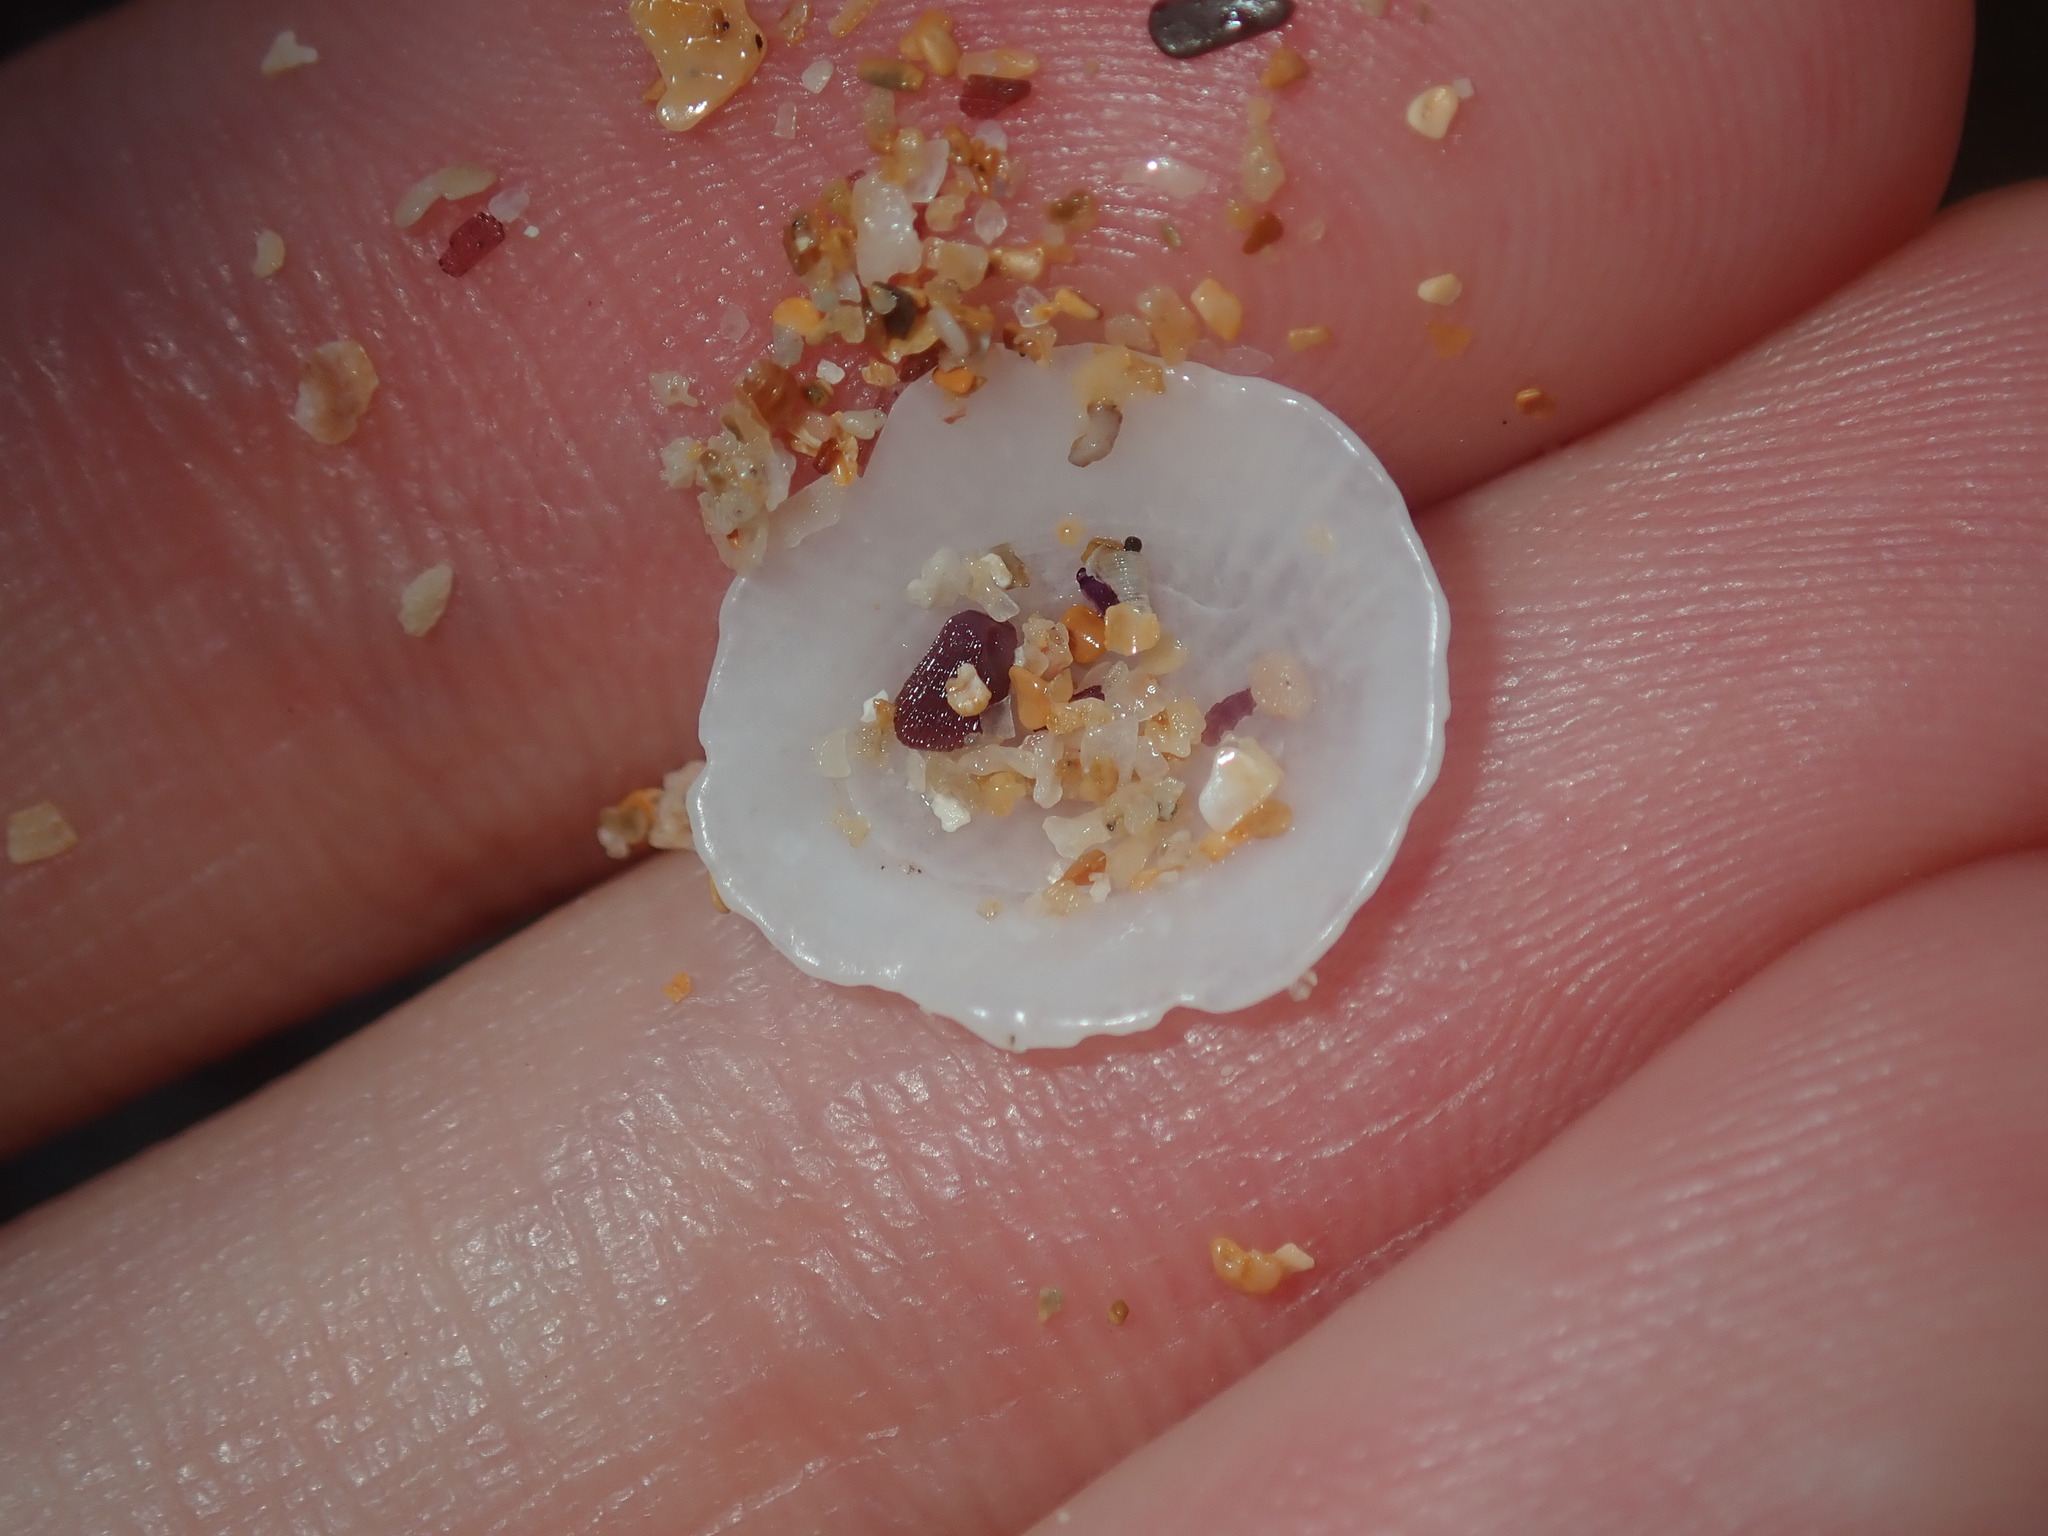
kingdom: Animalia
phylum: Mollusca
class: Gastropoda
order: Ellobiida
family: Trimusculidae
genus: Trimusculus
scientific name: Trimusculus conicus
